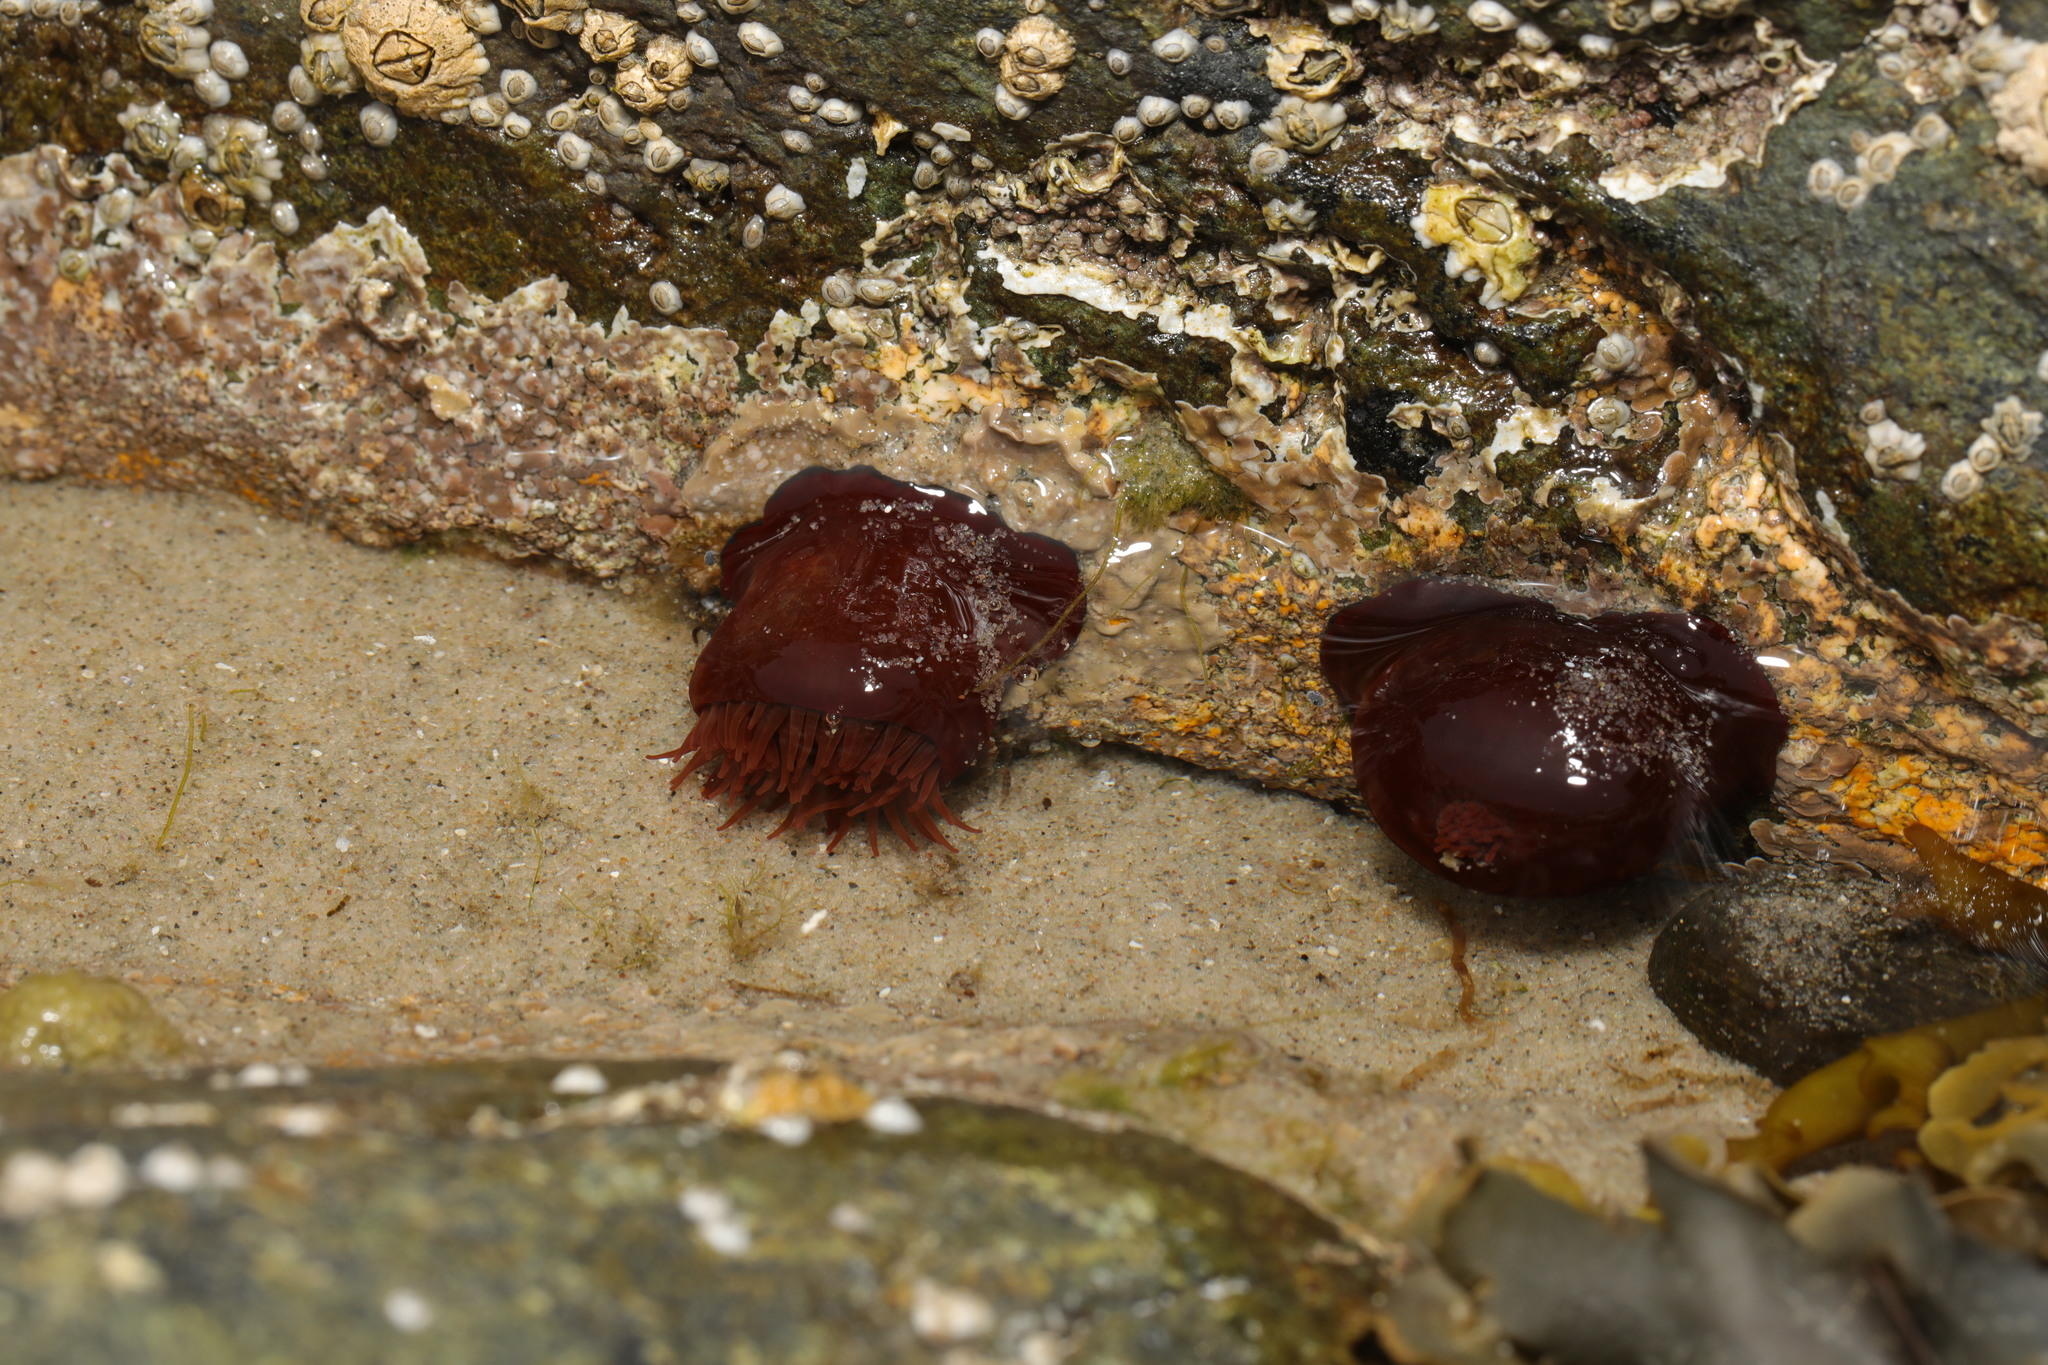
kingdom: Animalia
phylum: Cnidaria
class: Anthozoa
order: Actiniaria
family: Actiniidae
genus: Actinia
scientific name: Actinia equina
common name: Beadlet anemone
